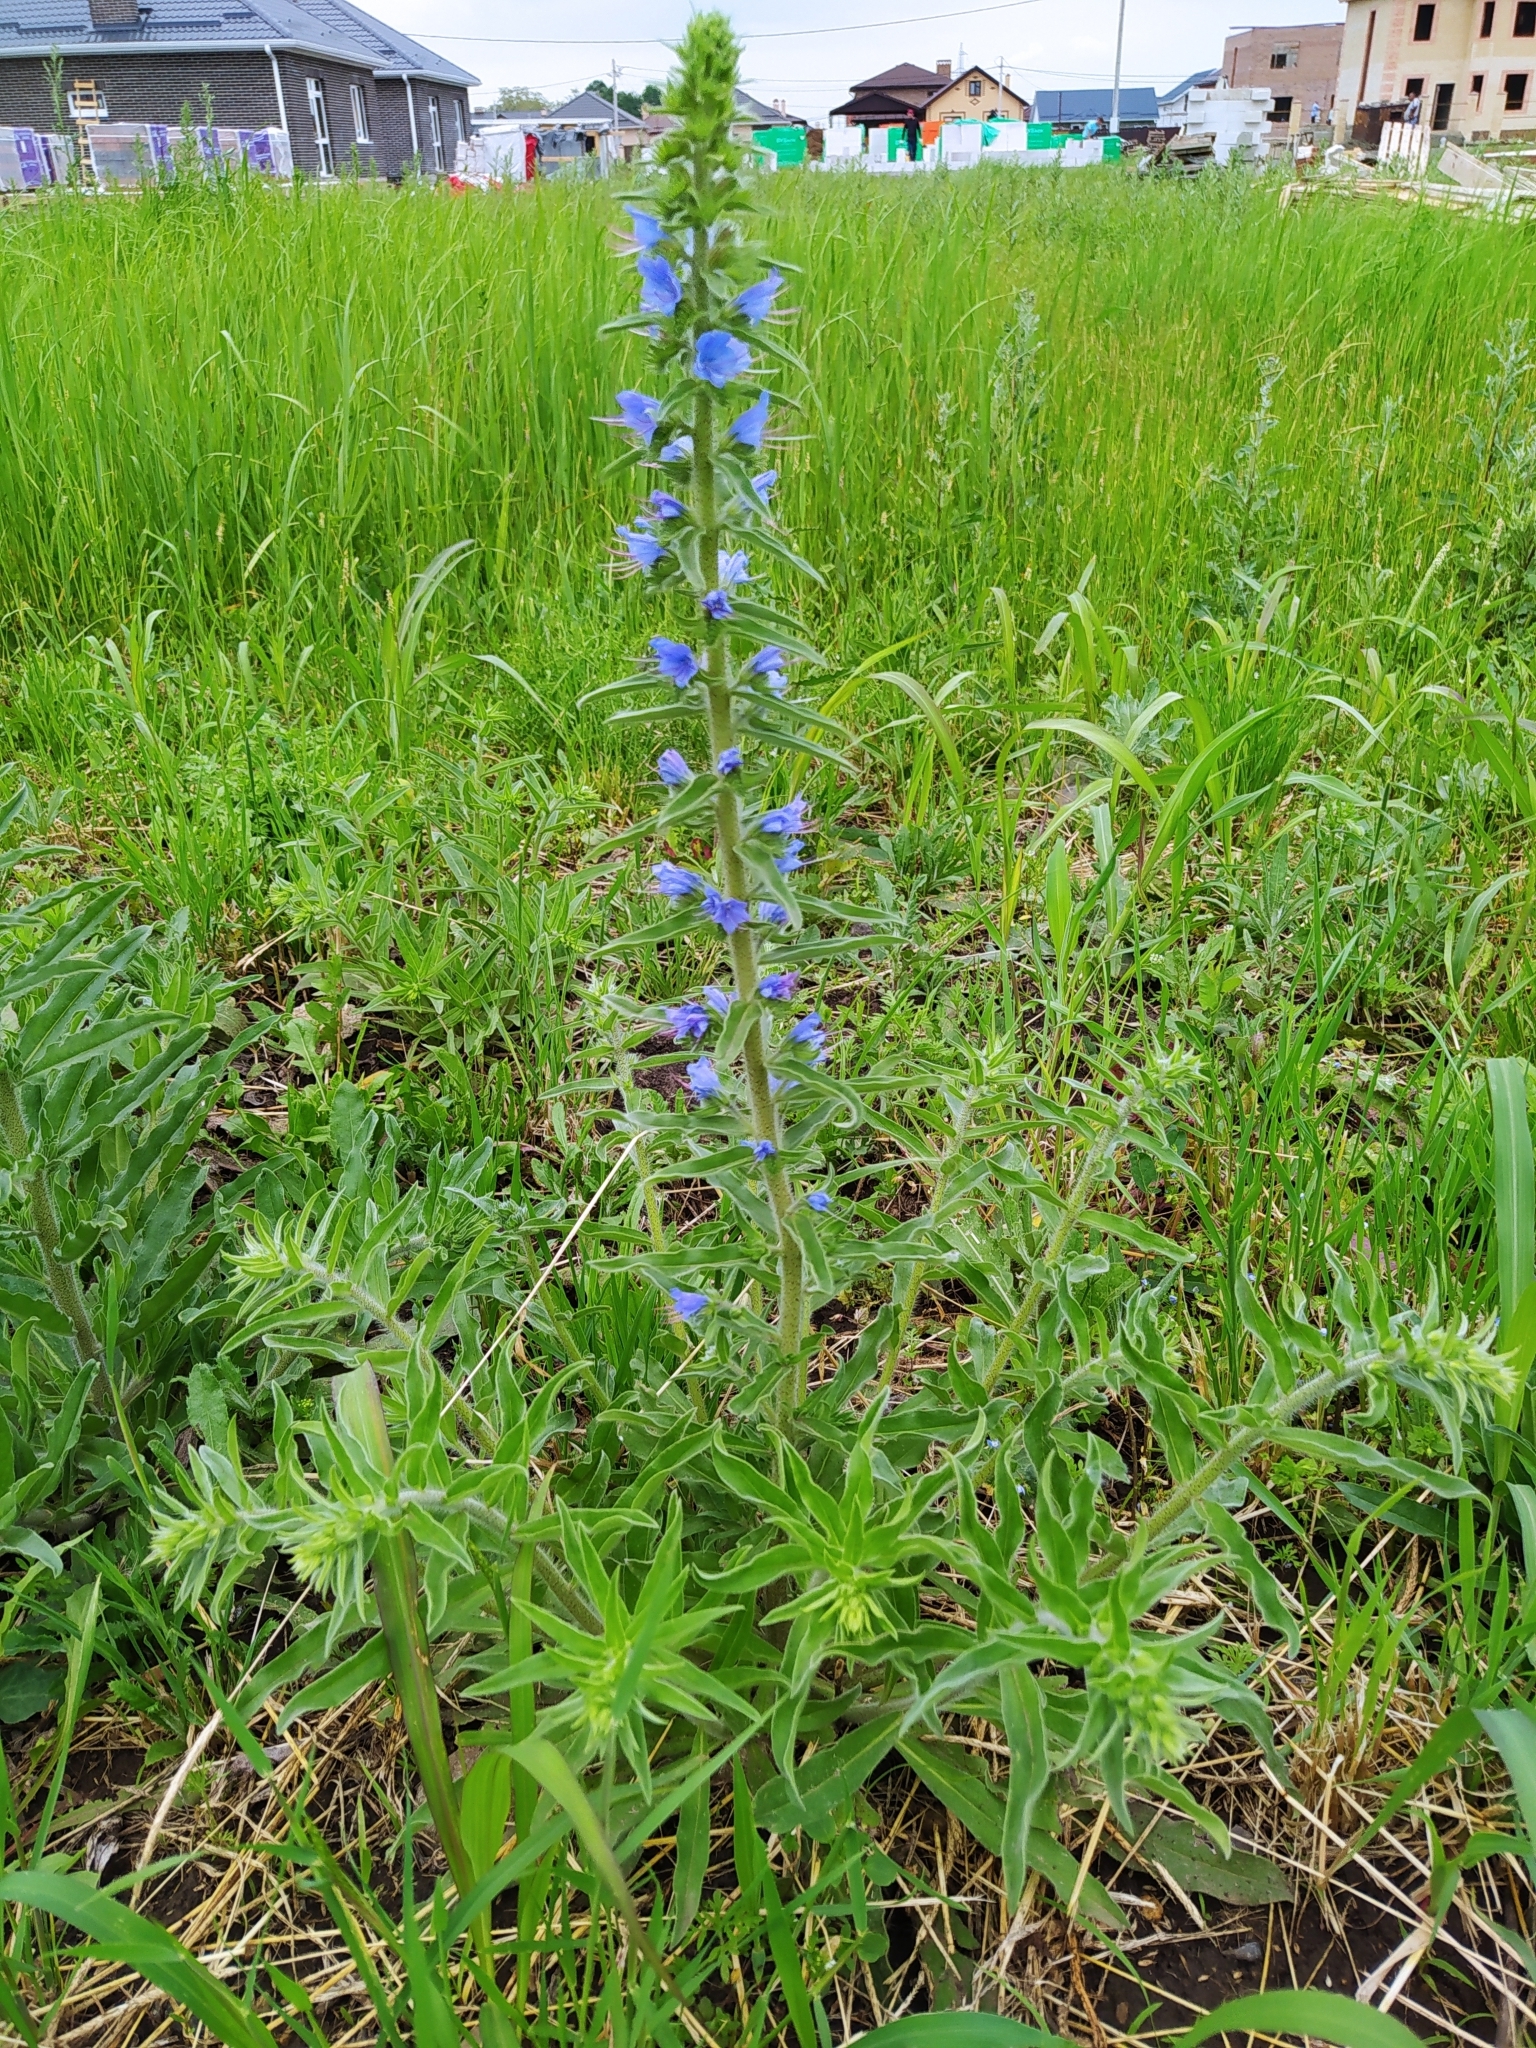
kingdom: Plantae
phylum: Tracheophyta
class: Magnoliopsida
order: Boraginales
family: Boraginaceae
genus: Echium
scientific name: Echium vulgare
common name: Common viper's bugloss
